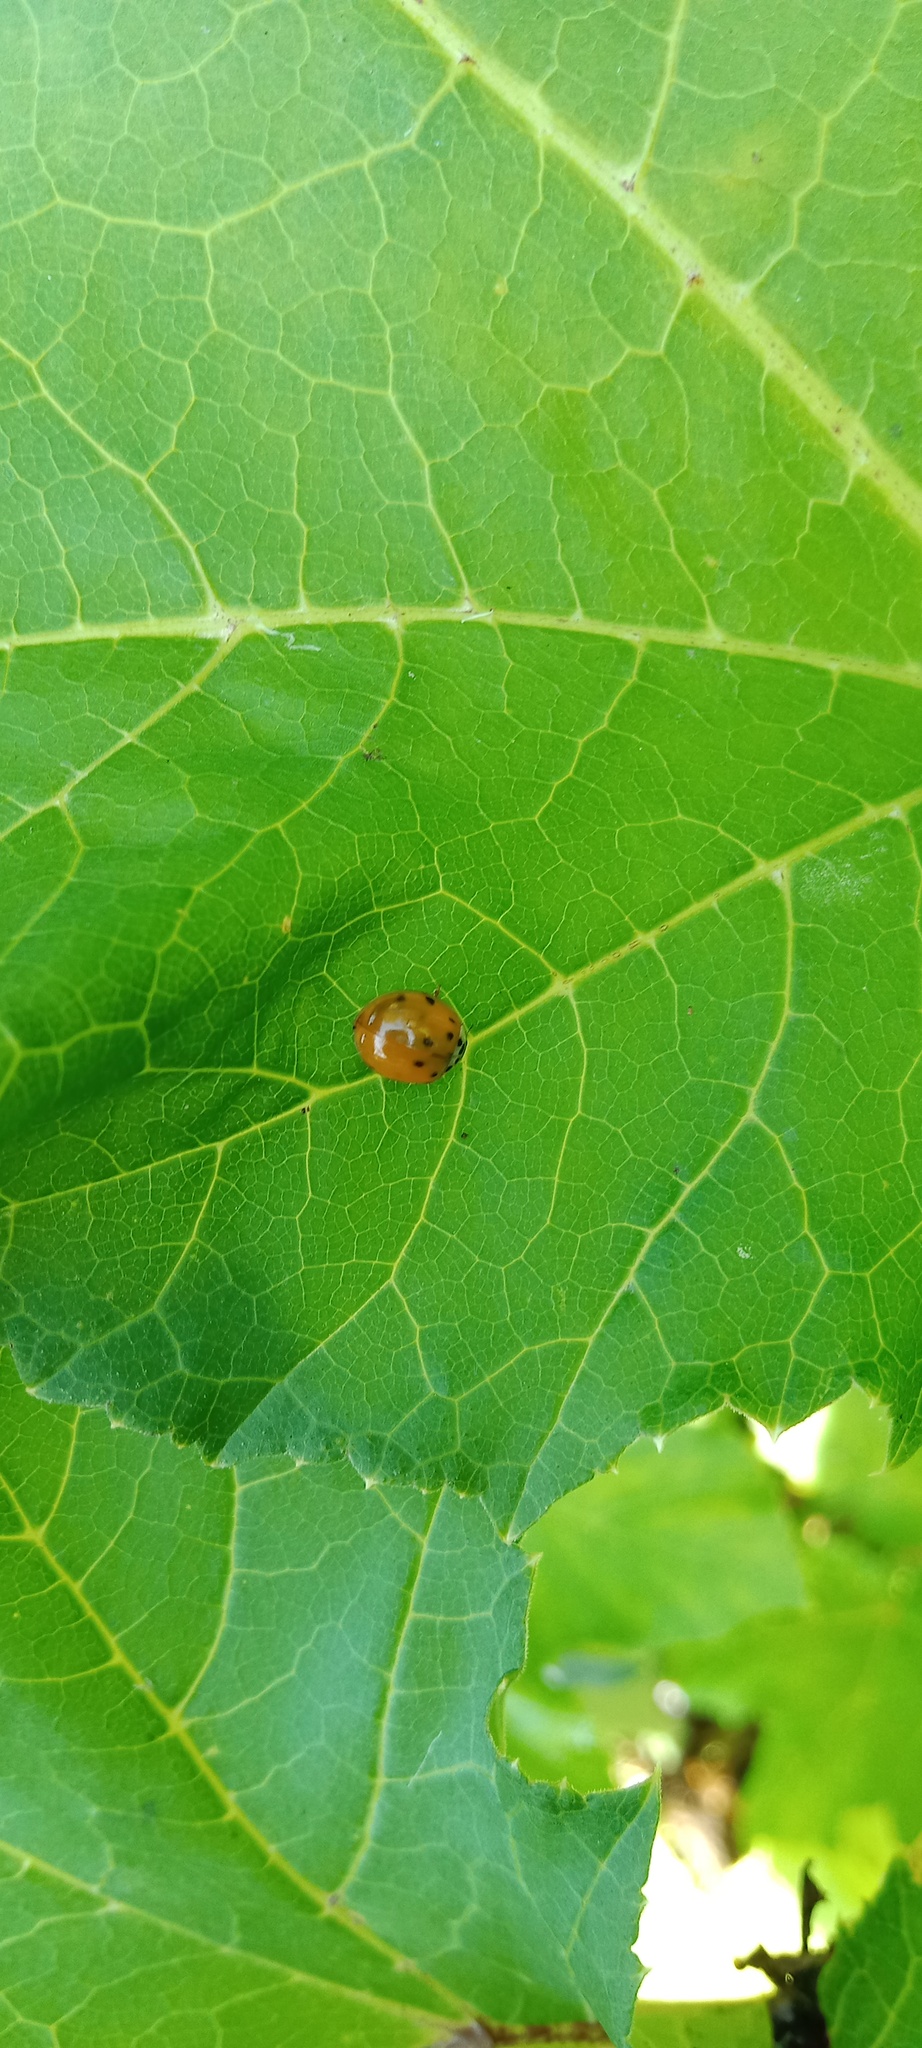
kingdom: Animalia
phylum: Arthropoda
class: Insecta
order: Coleoptera
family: Coccinellidae
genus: Harmonia
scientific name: Harmonia axyridis
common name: Harlequin ladybird
